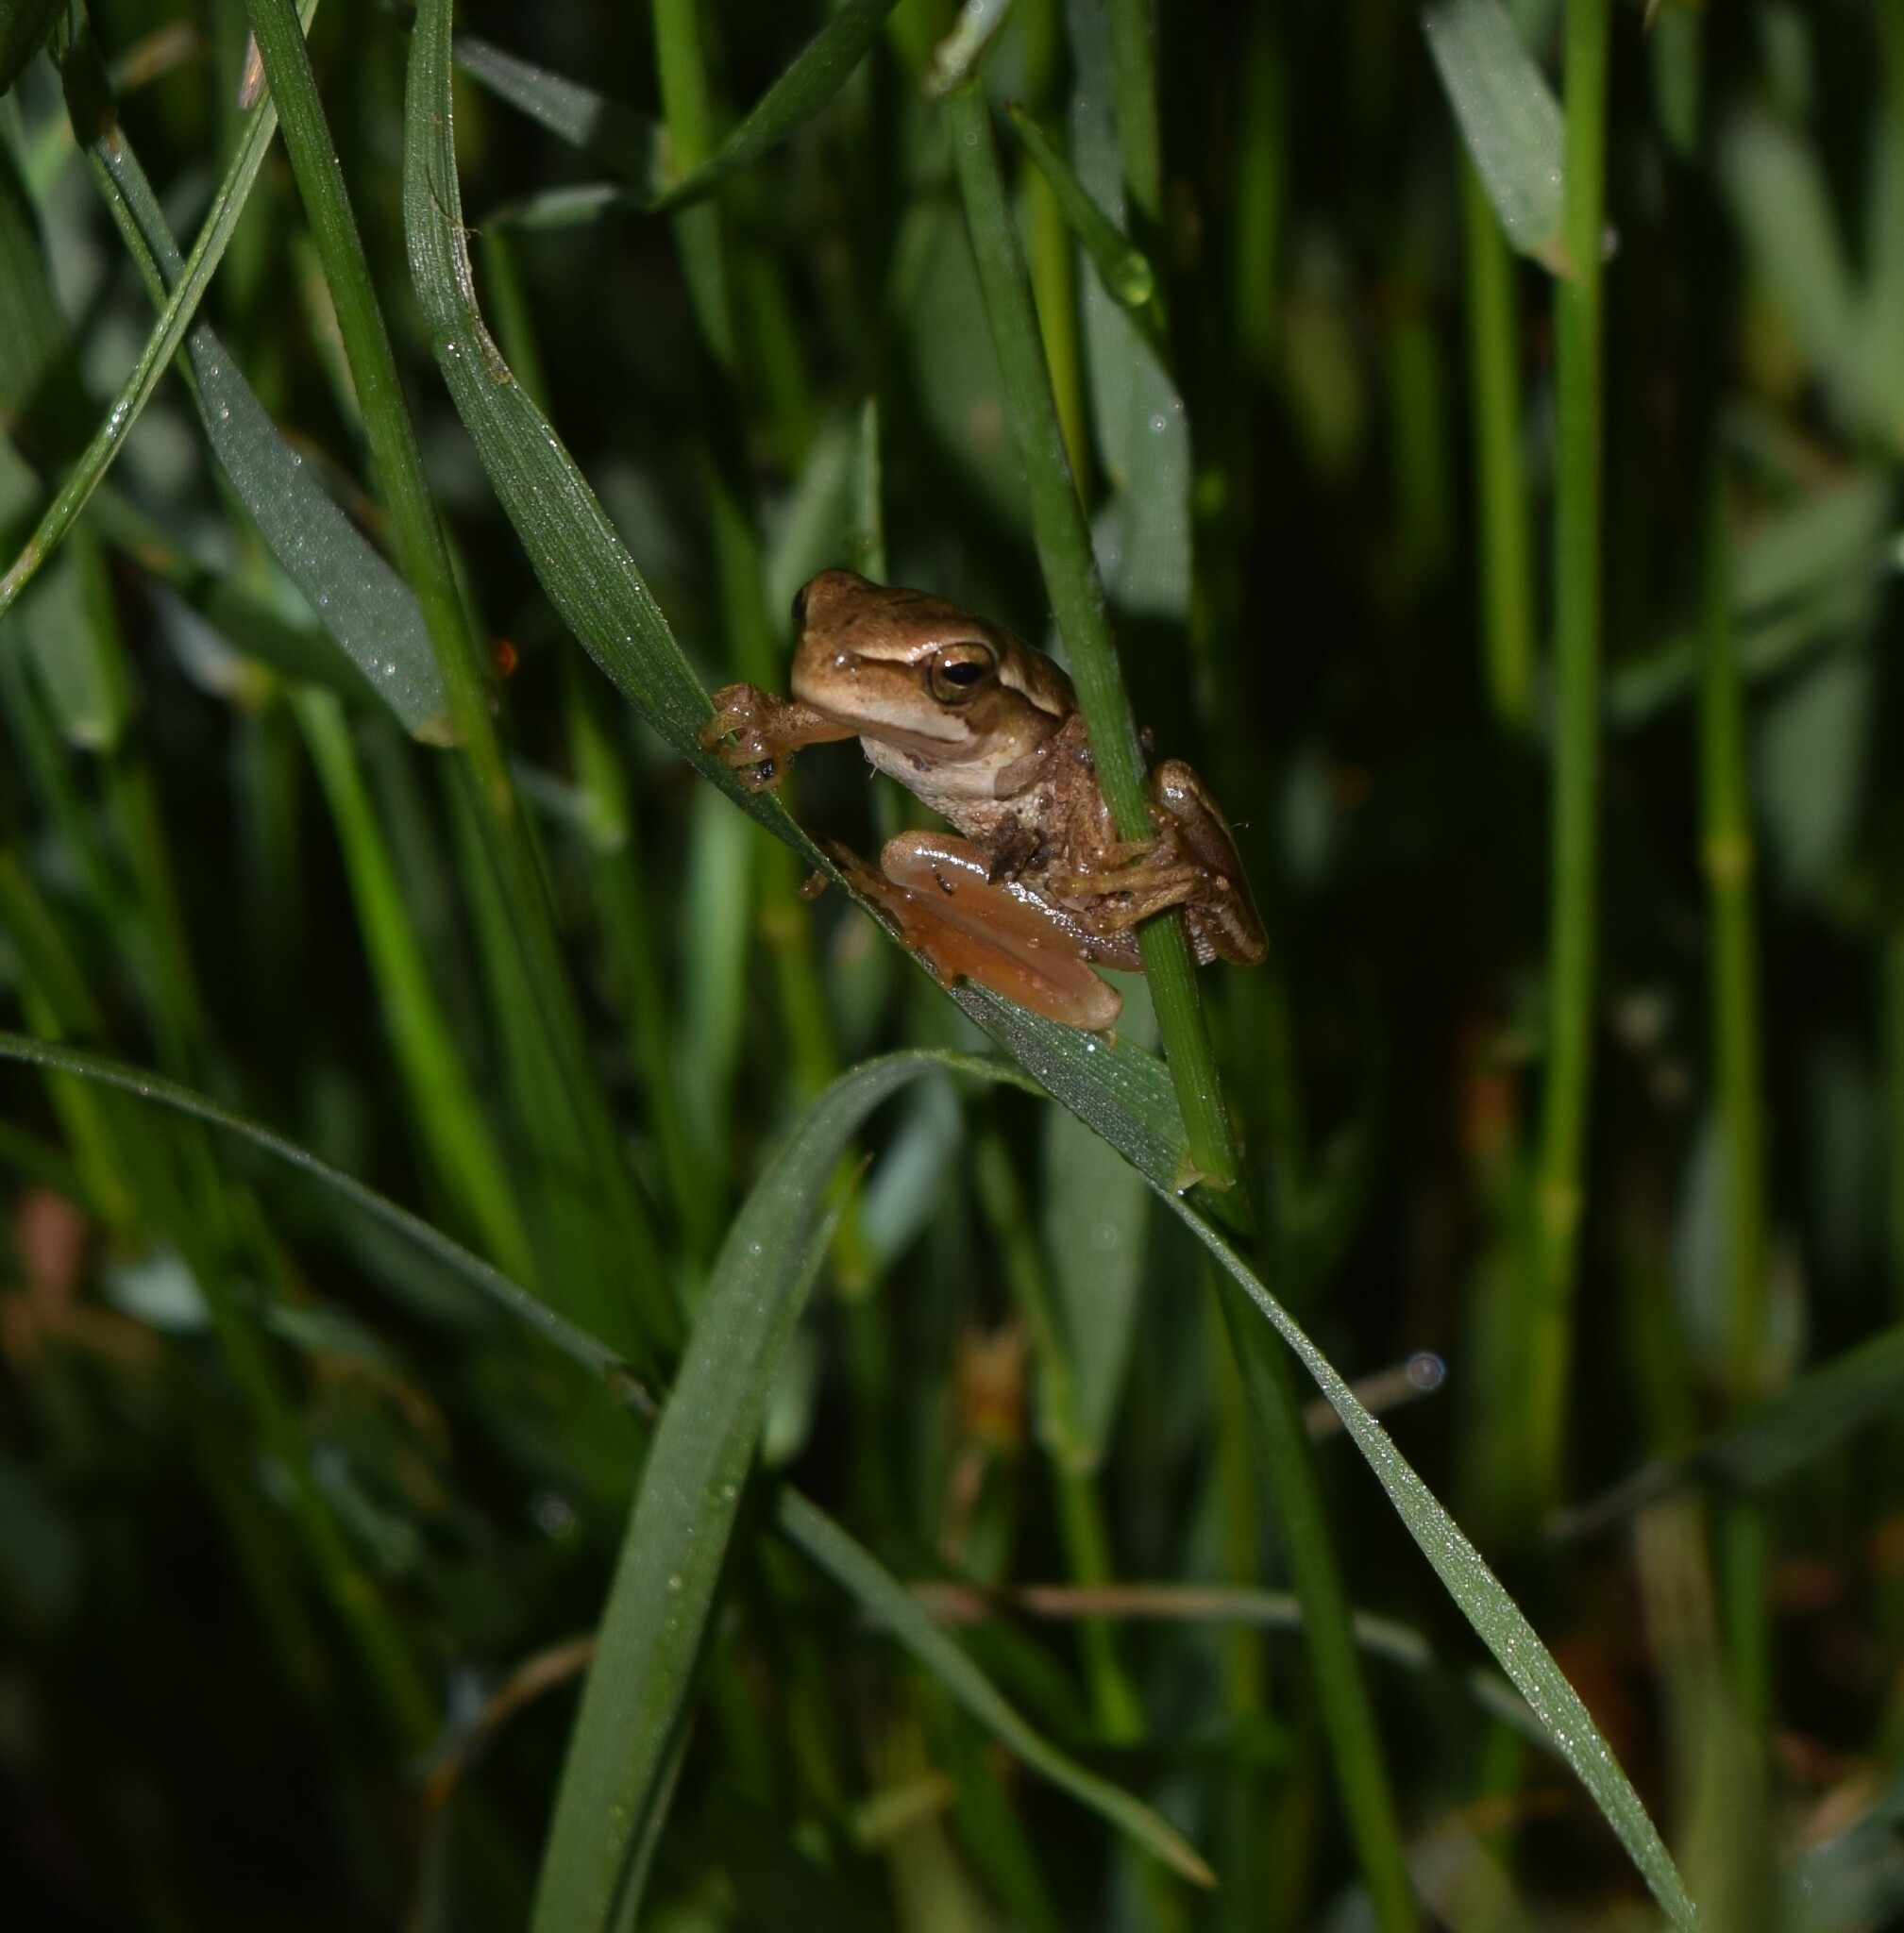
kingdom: Animalia
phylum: Chordata
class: Amphibia
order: Anura
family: Hylidae
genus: Boana
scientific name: Boana pulchella
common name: Montevideo treefrog
